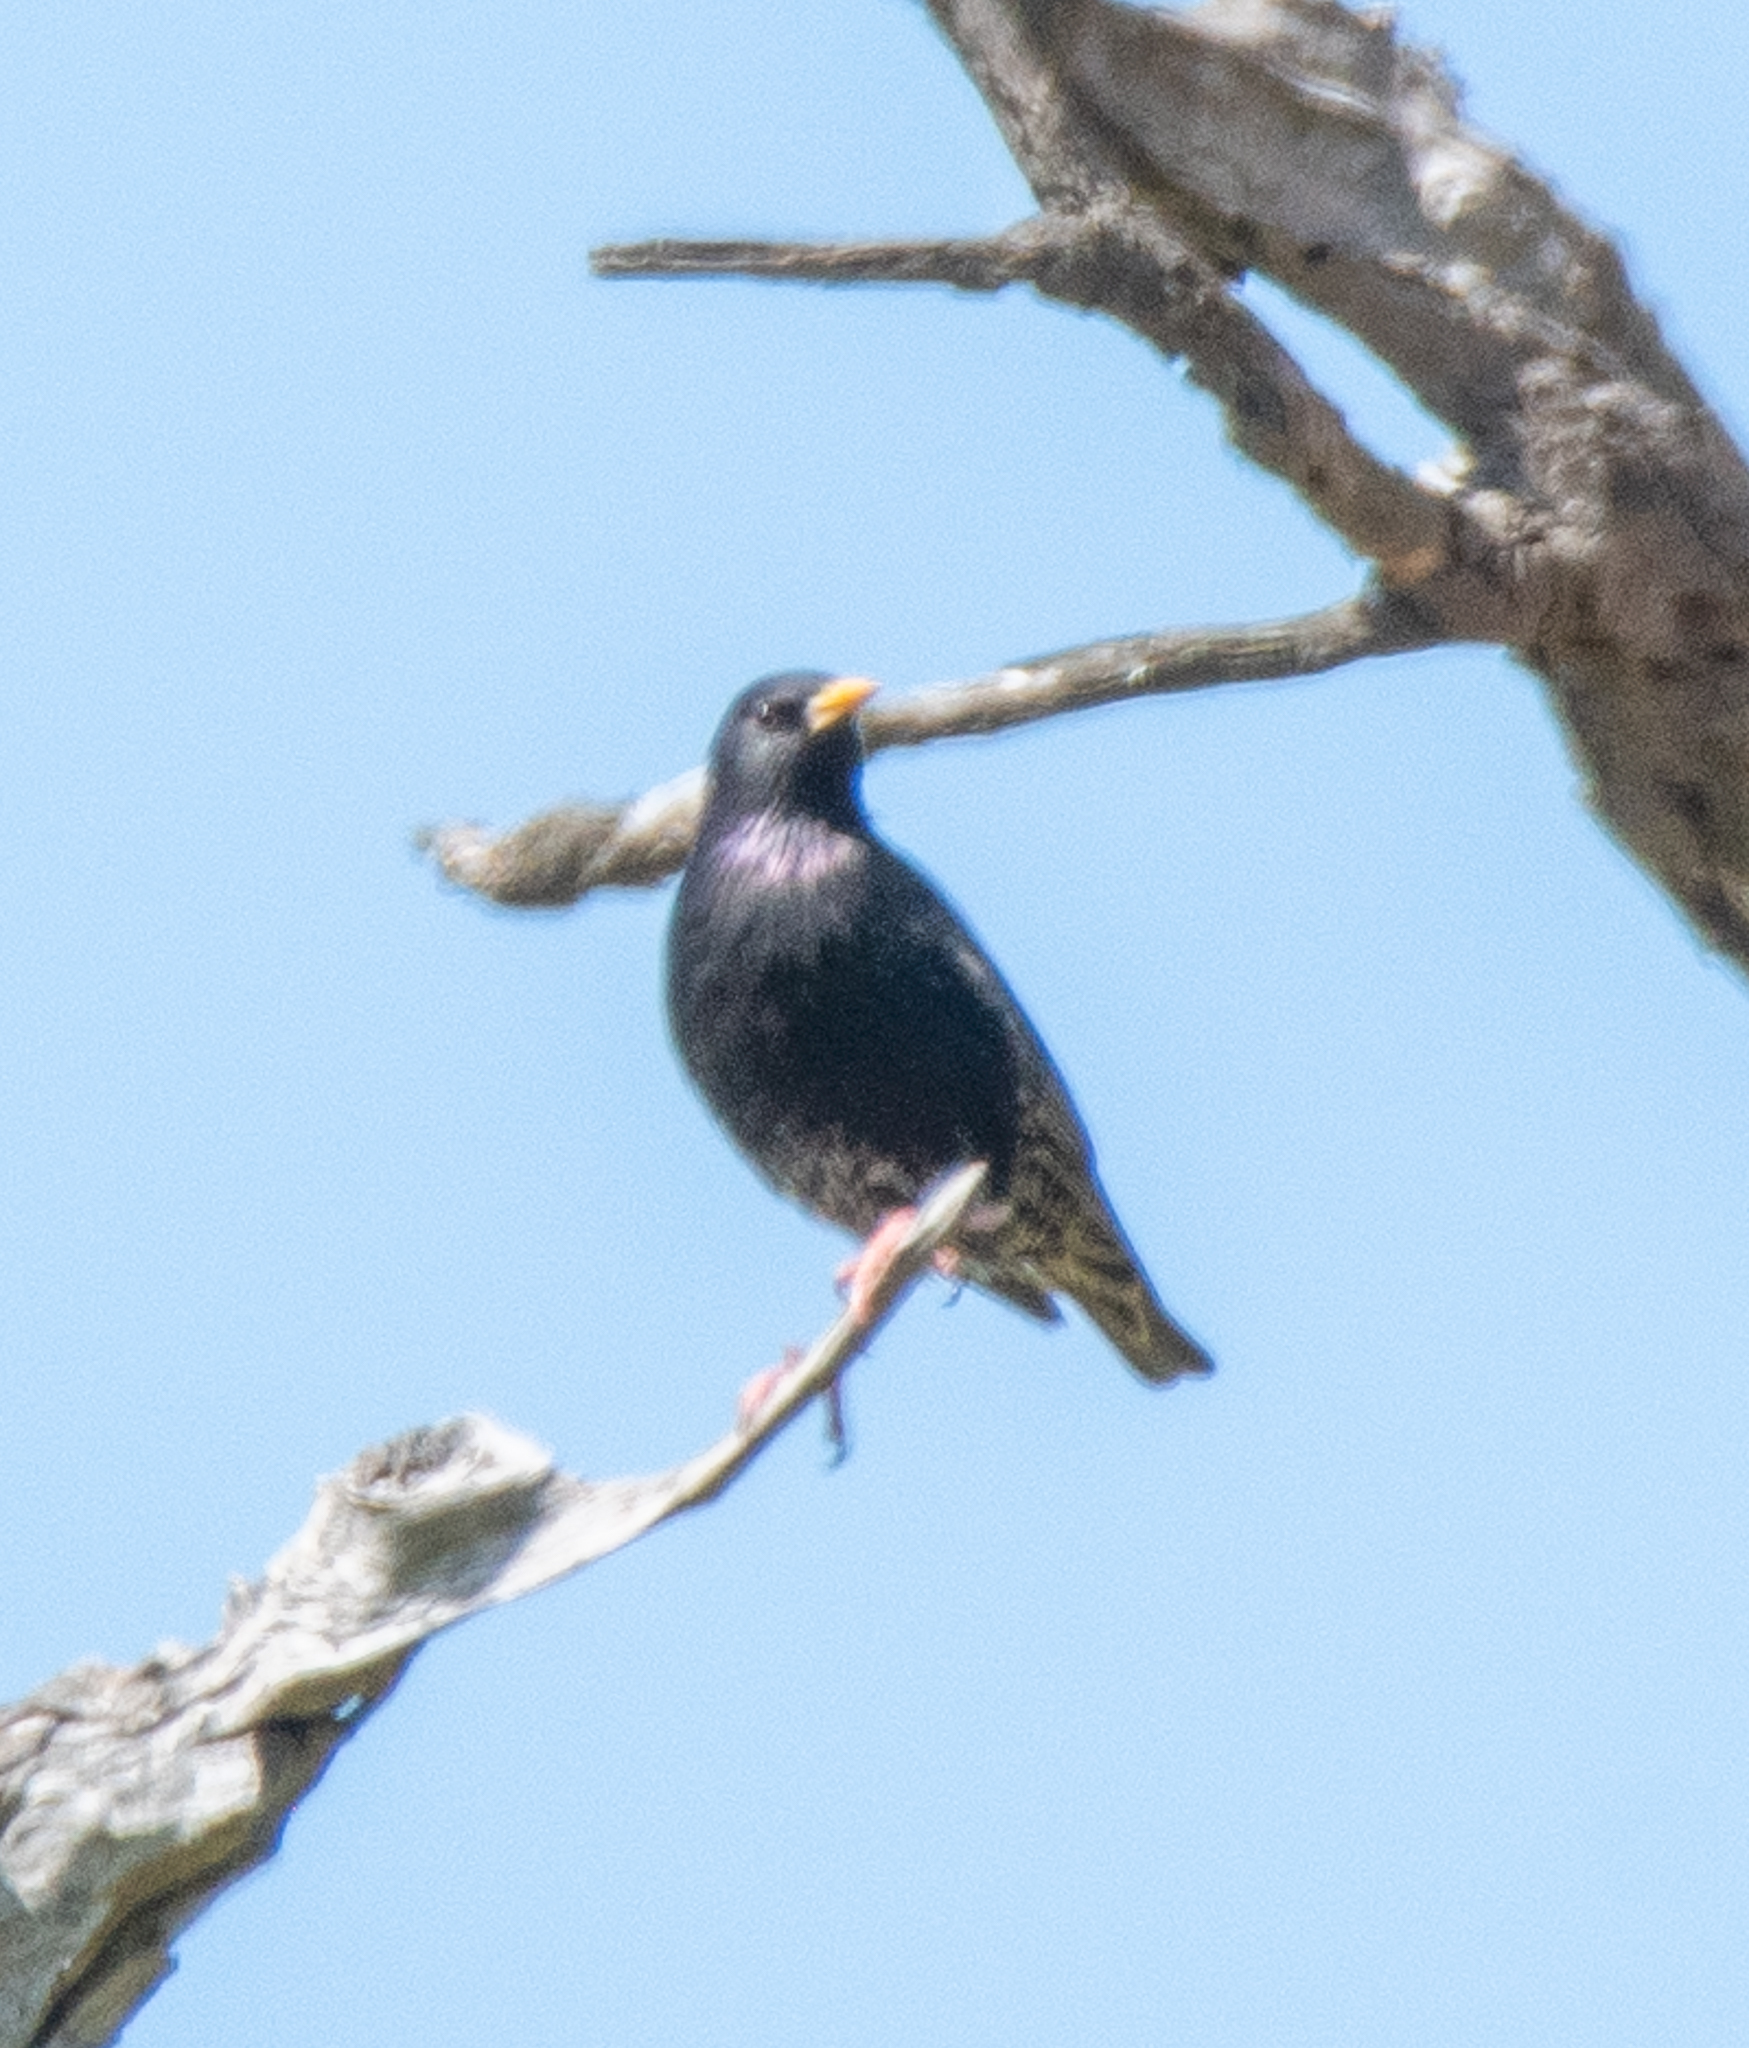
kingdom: Animalia
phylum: Chordata
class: Aves
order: Passeriformes
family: Sturnidae
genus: Sturnus
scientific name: Sturnus vulgaris
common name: Common starling
